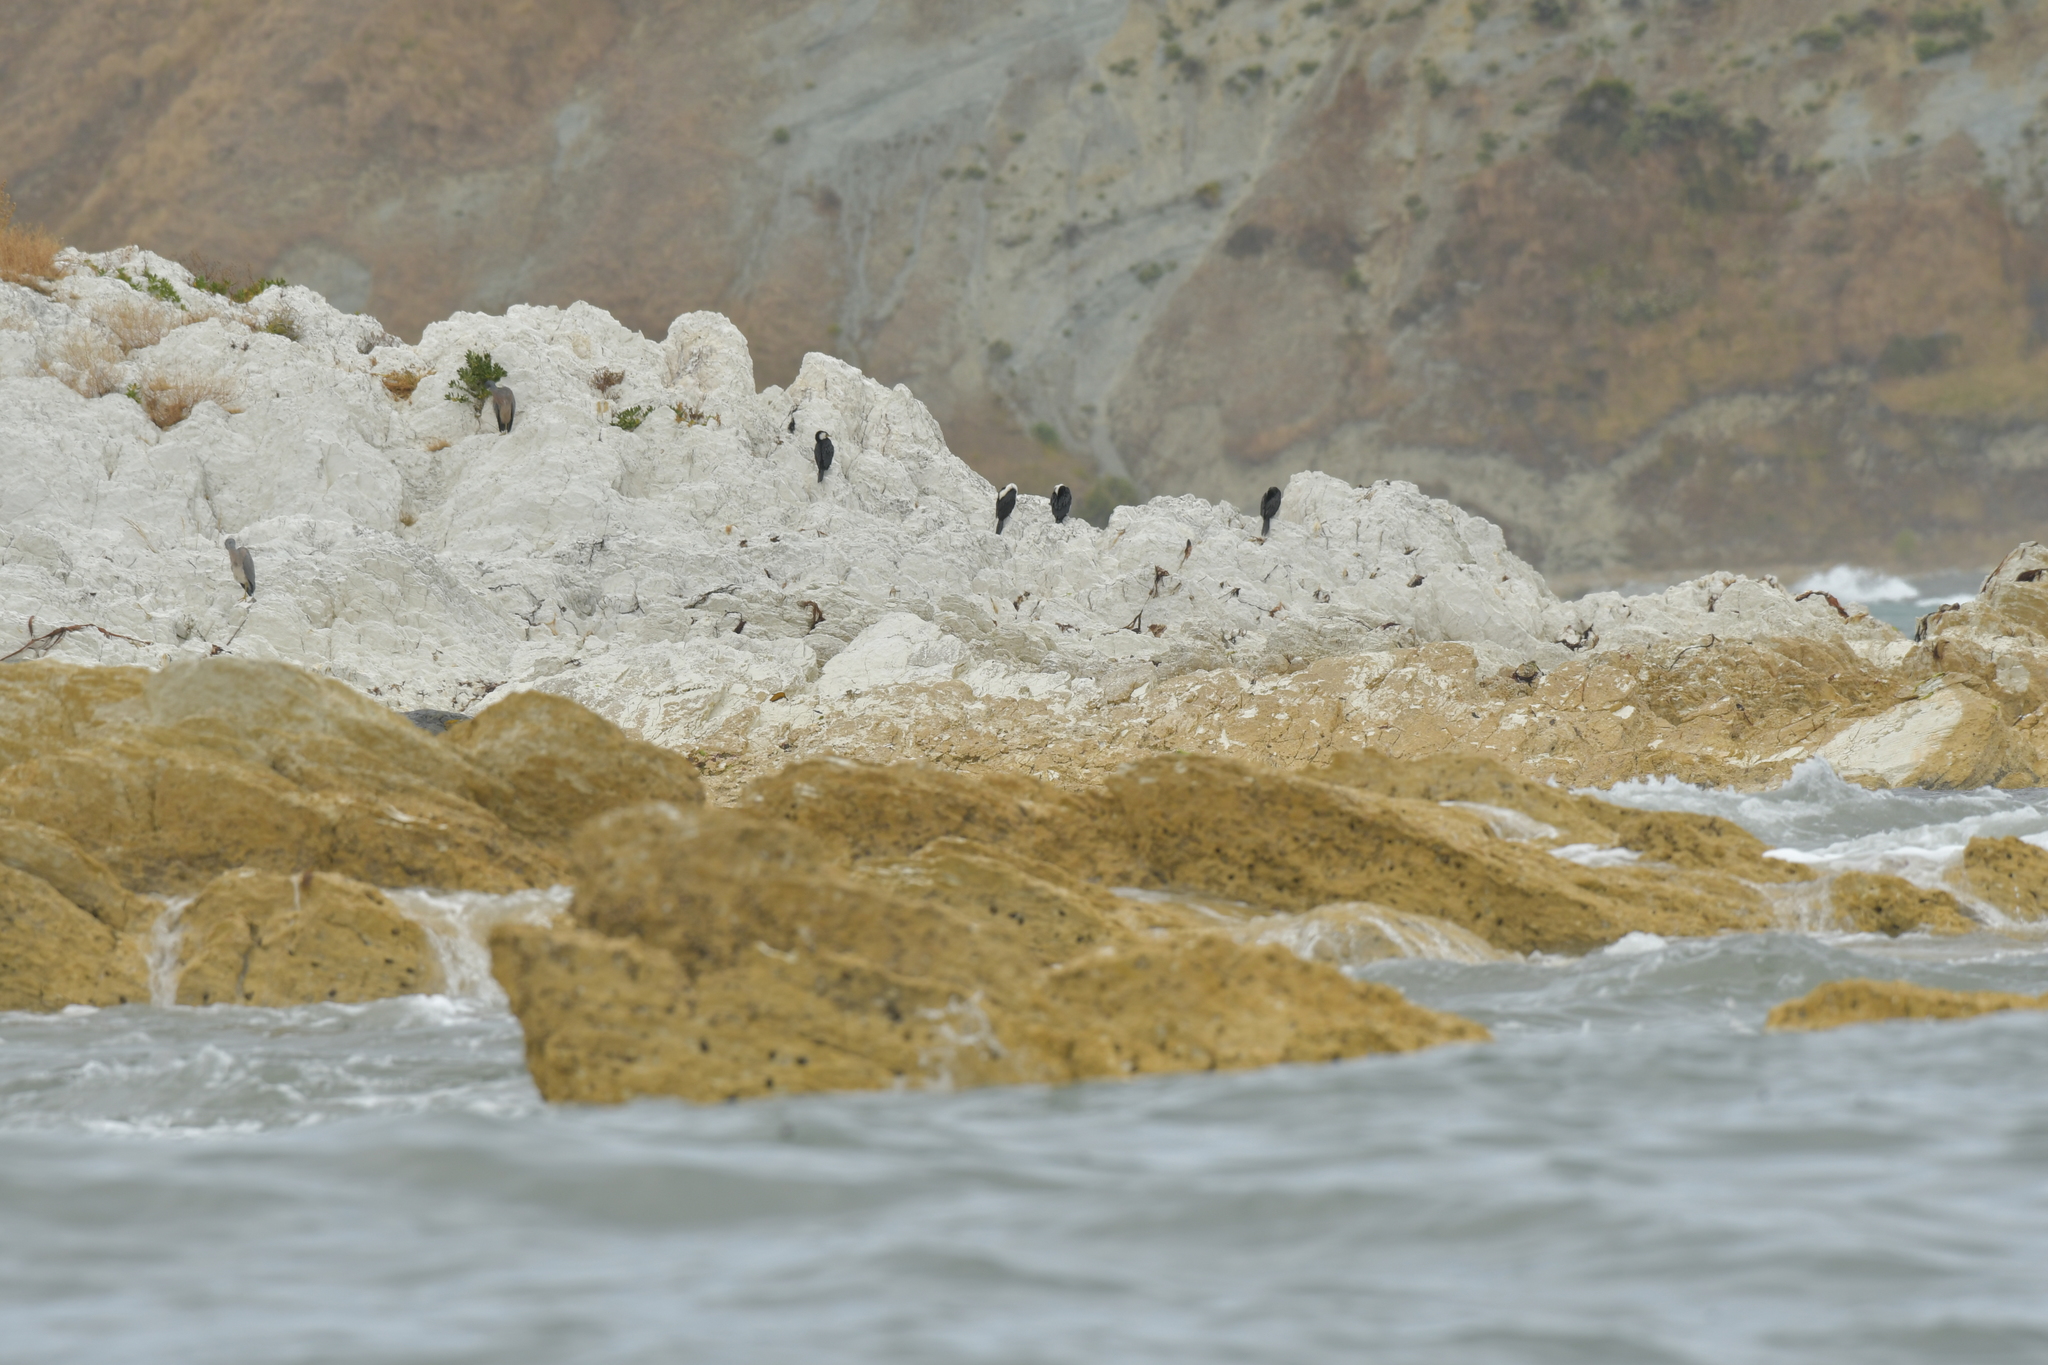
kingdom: Animalia
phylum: Chordata
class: Aves
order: Suliformes
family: Phalacrocoracidae
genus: Microcarbo
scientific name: Microcarbo melanoleucos
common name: Little pied cormorant
